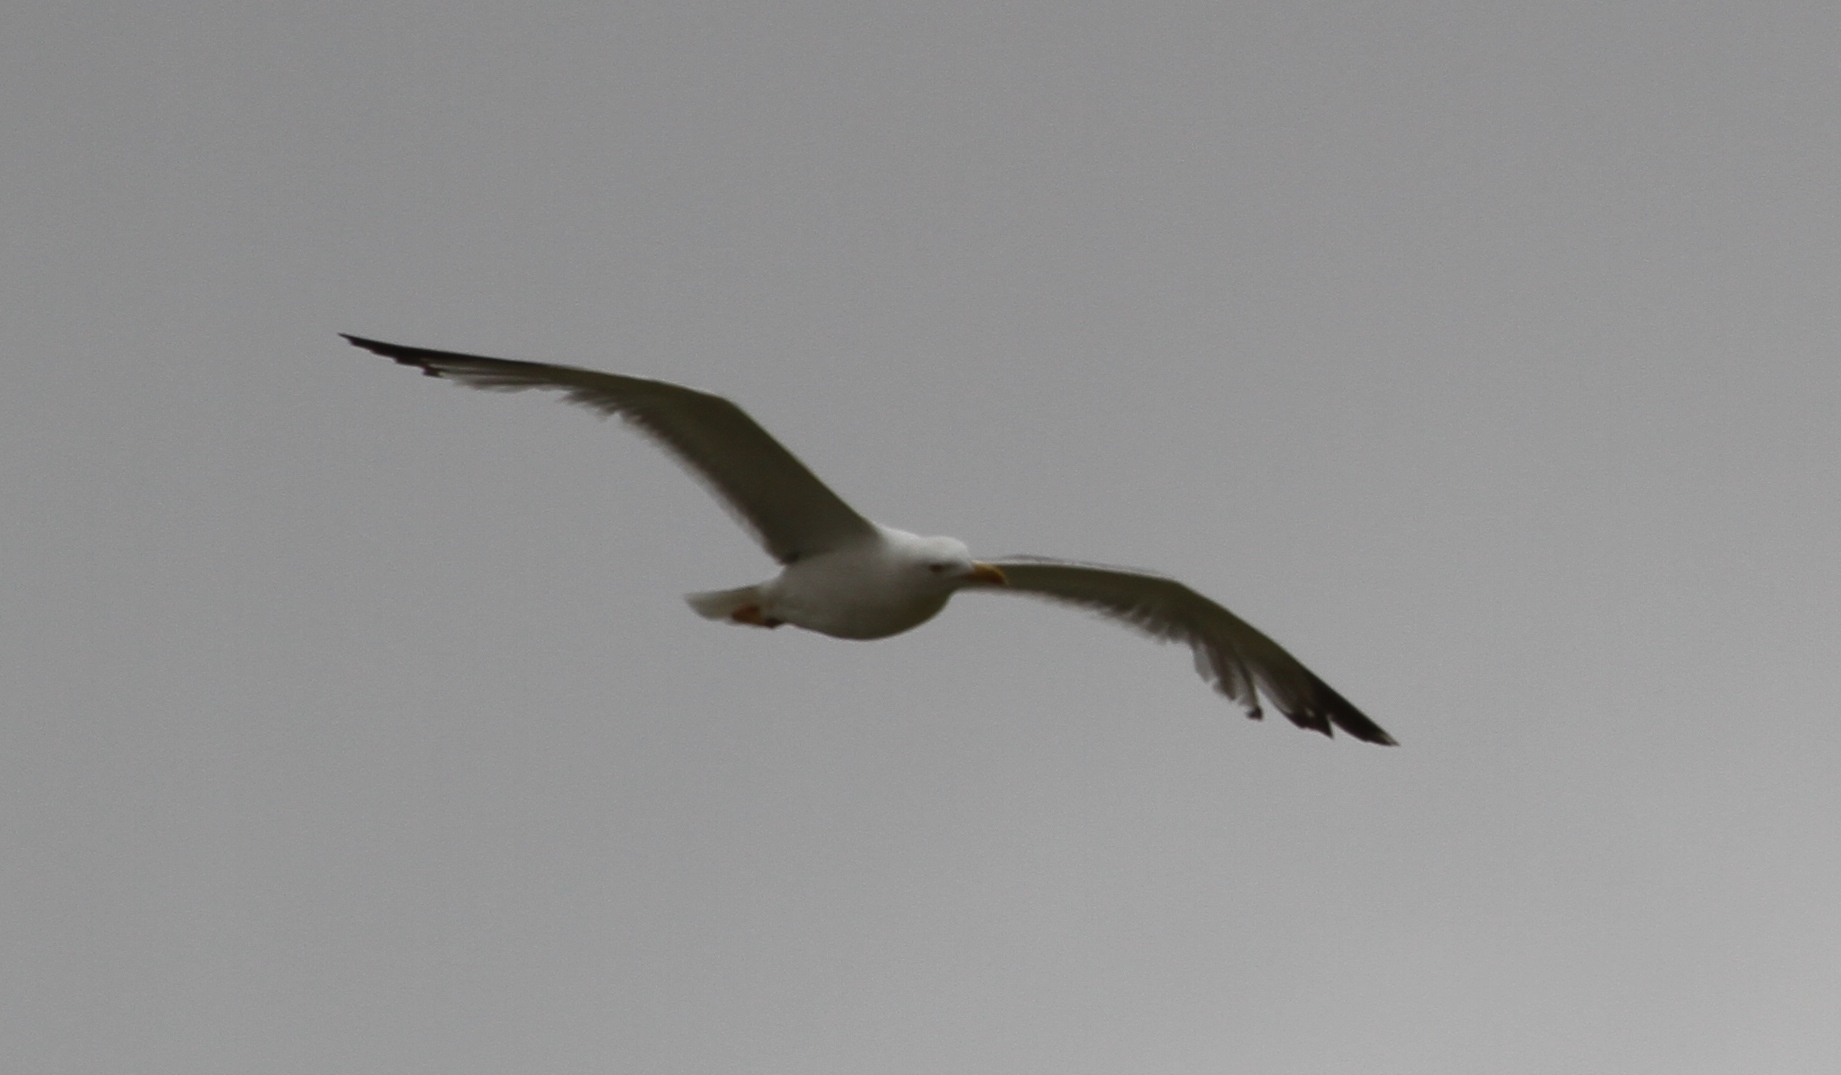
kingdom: Animalia
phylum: Chordata
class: Aves
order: Charadriiformes
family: Laridae
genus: Larus
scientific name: Larus michahellis
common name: Yellow-legged gull
